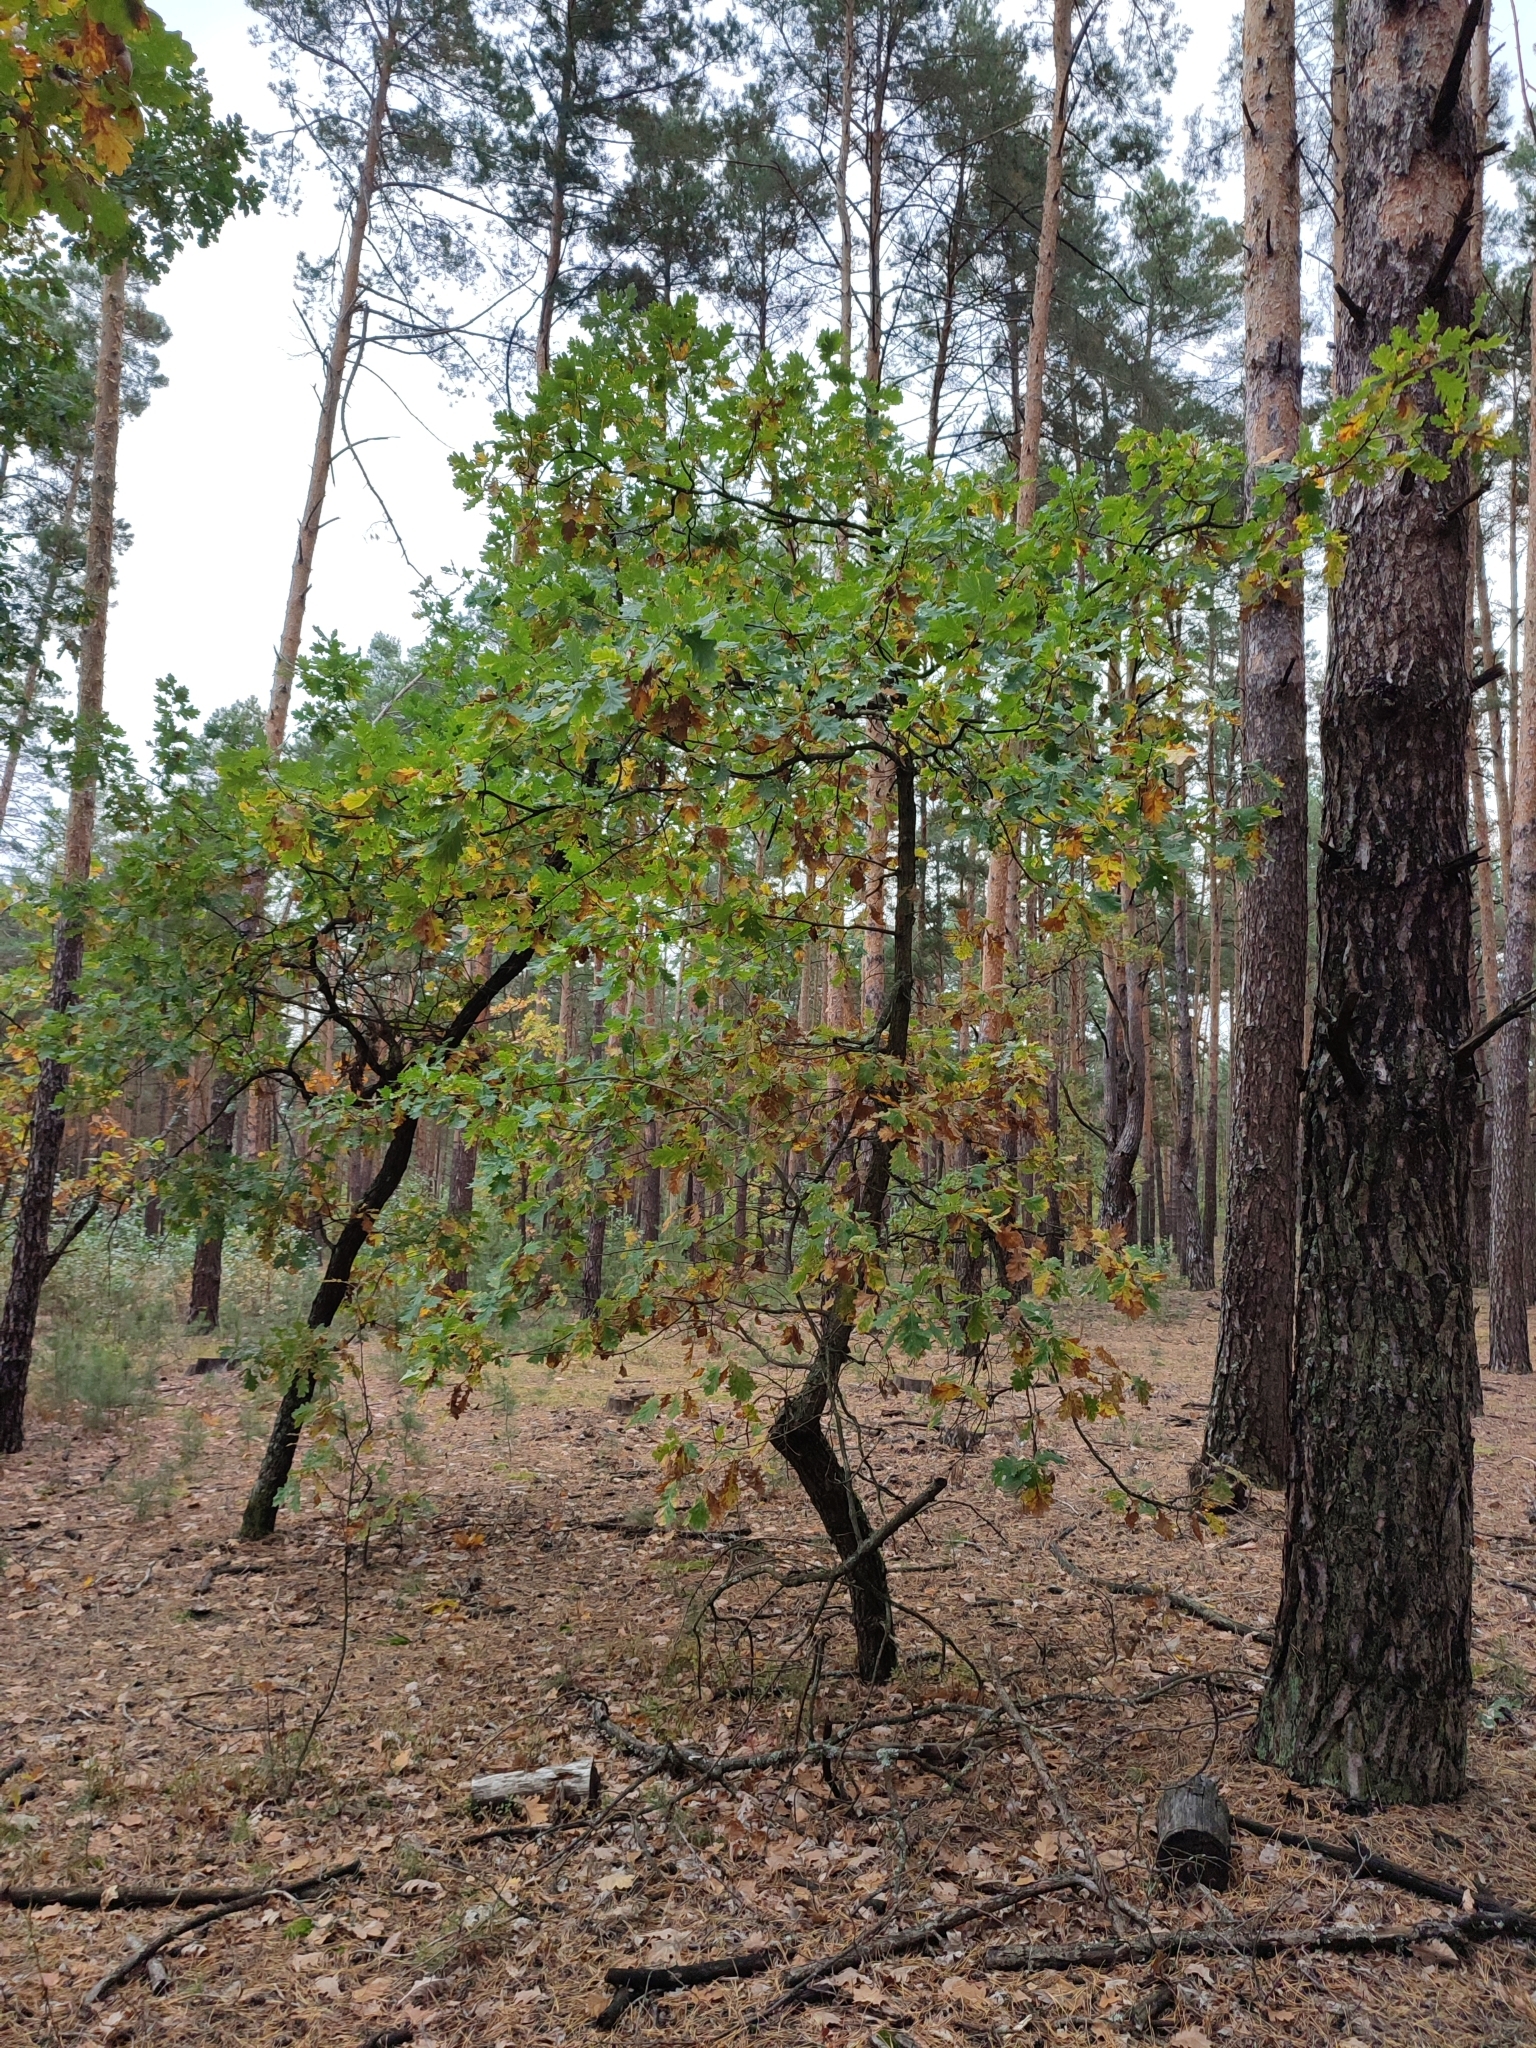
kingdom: Plantae
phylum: Tracheophyta
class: Magnoliopsida
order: Fagales
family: Fagaceae
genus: Quercus
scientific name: Quercus robur
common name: Pedunculate oak
